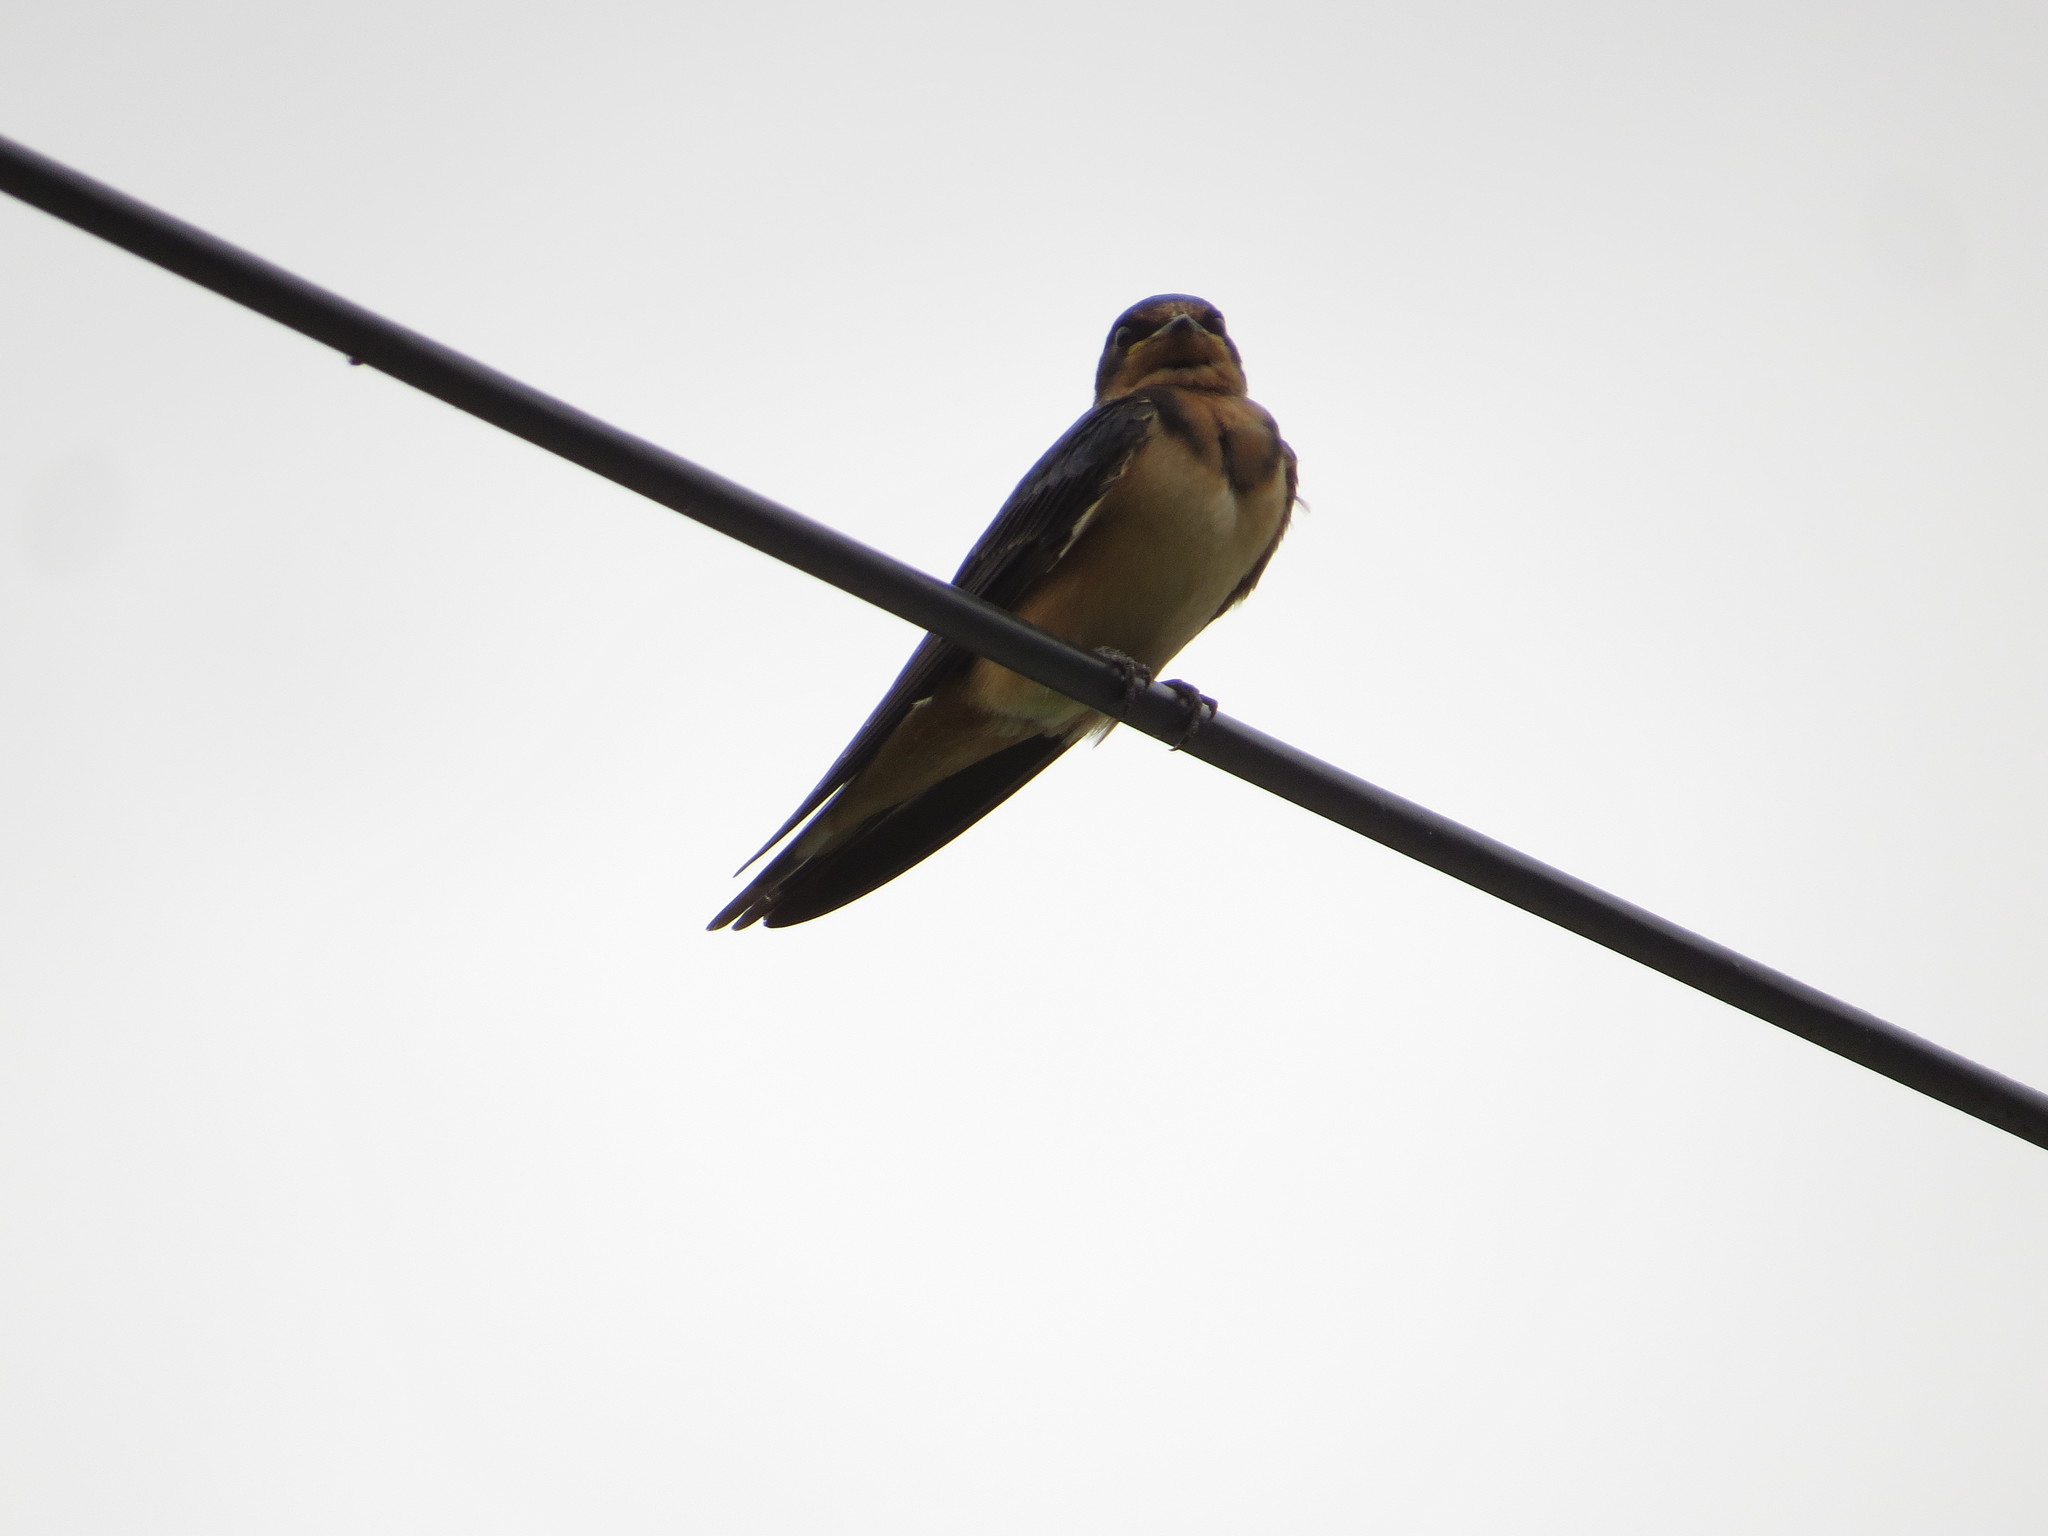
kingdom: Animalia
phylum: Chordata
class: Aves
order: Passeriformes
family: Hirundinidae
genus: Hirundo
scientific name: Hirundo rustica
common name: Barn swallow
